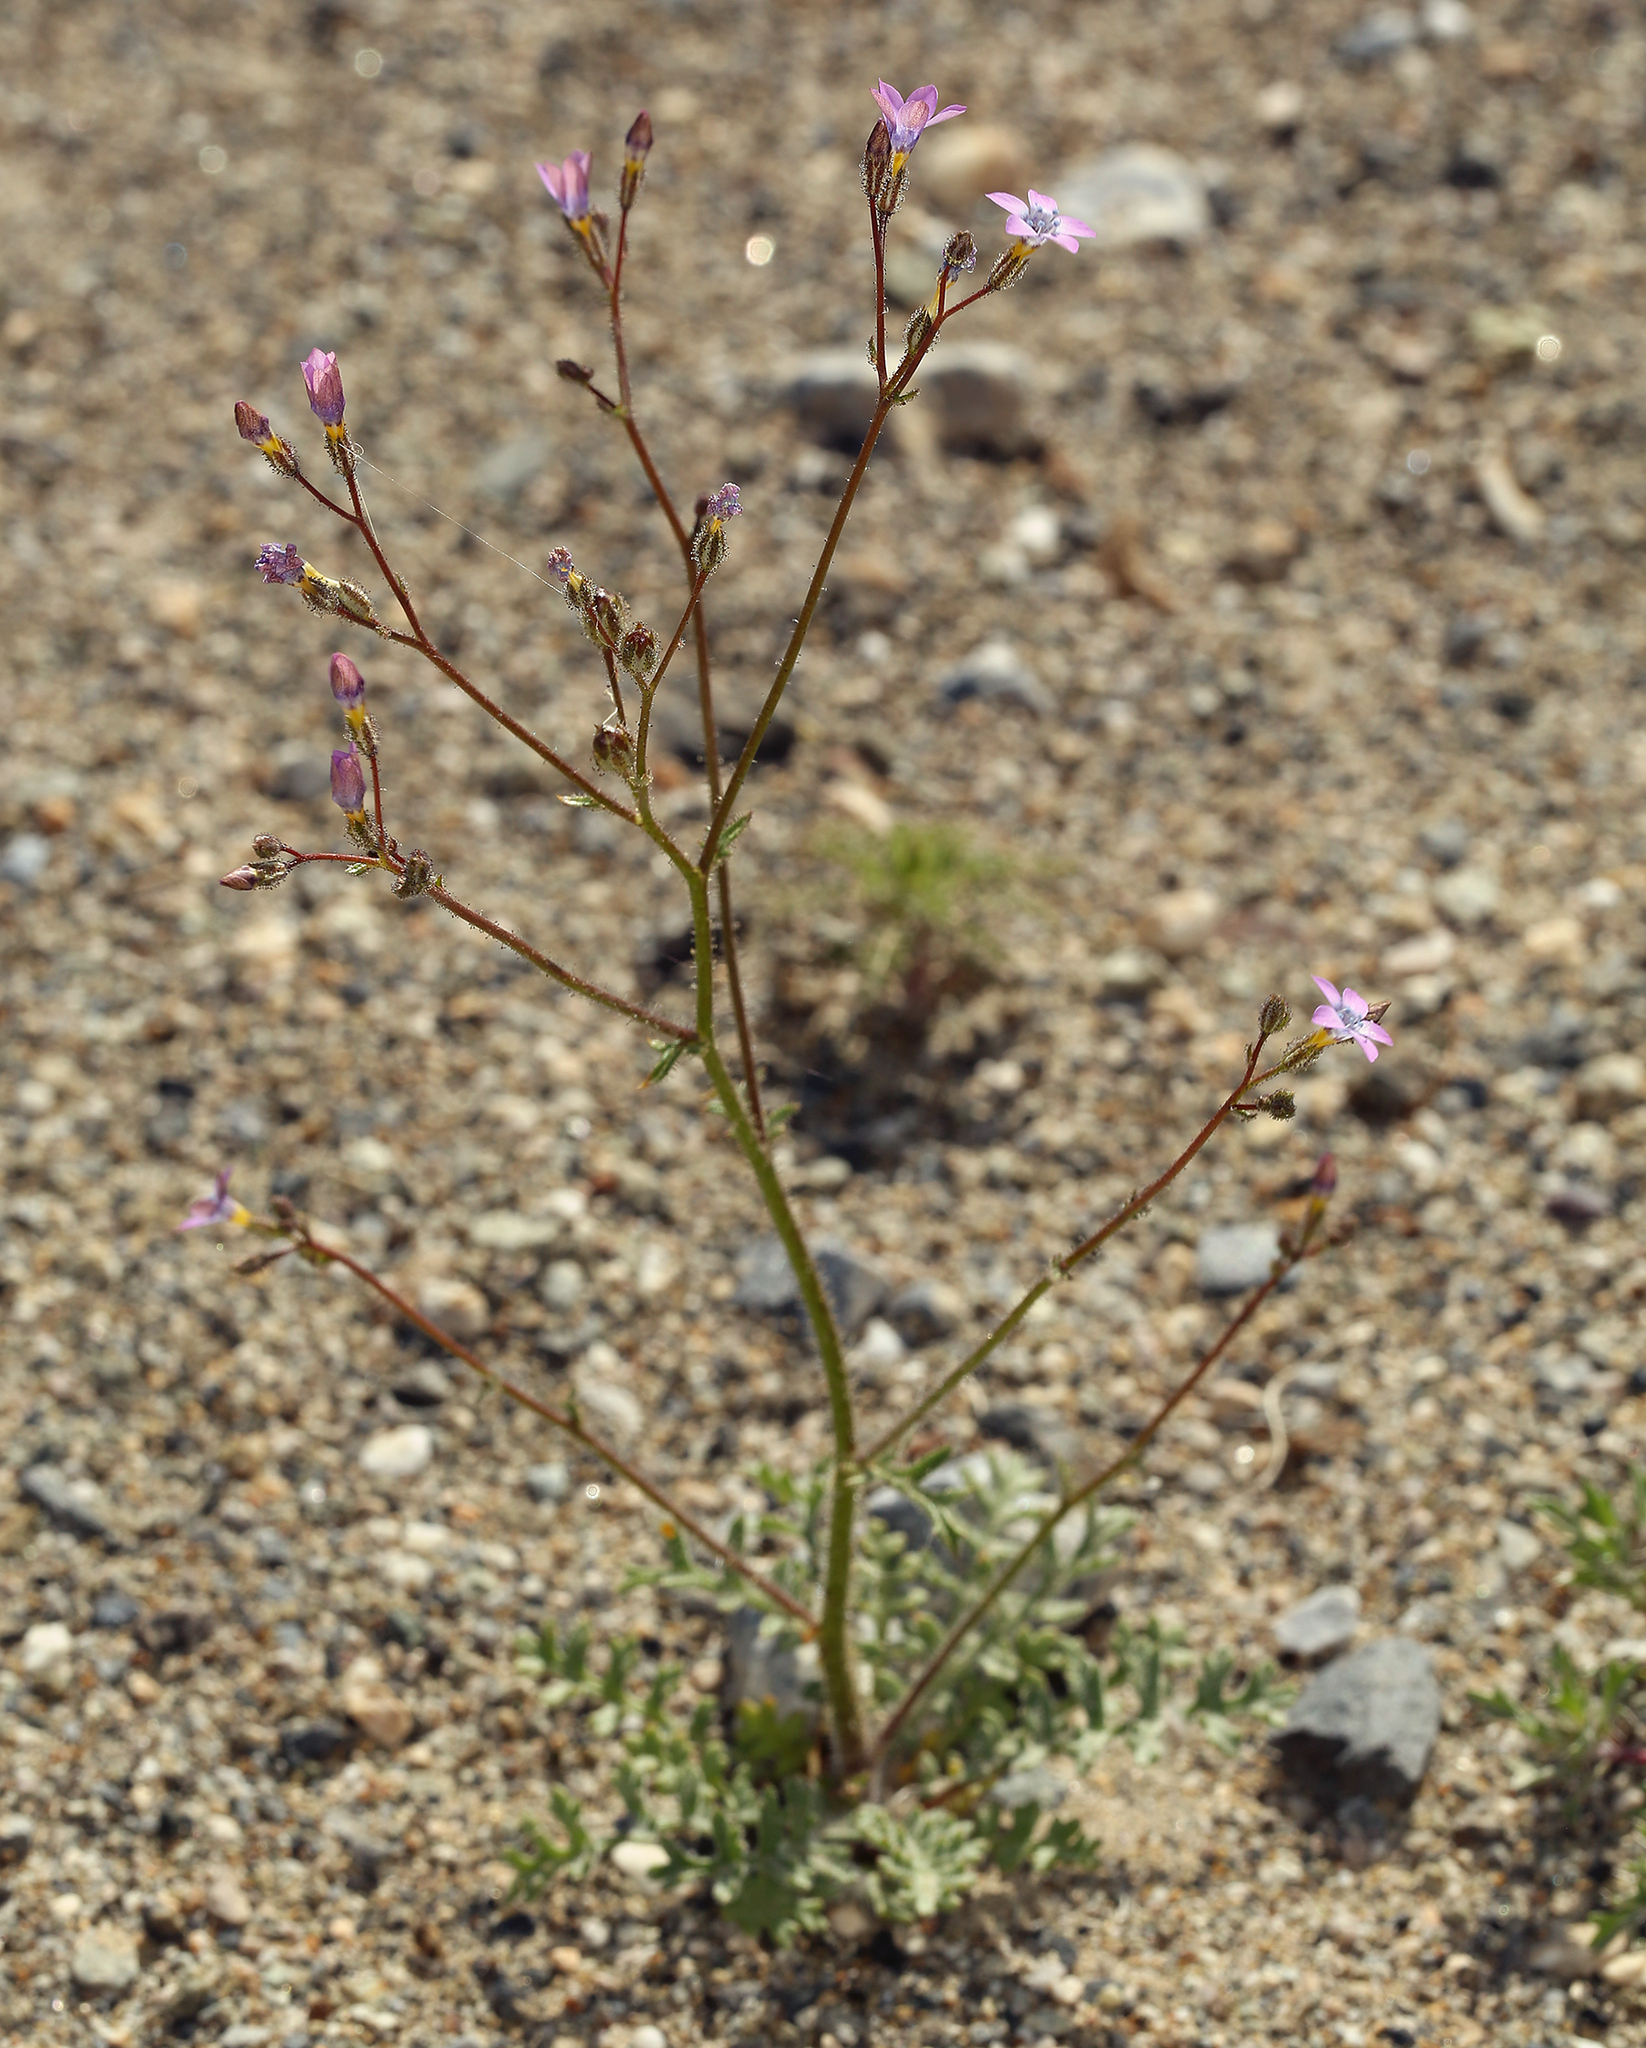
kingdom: Plantae
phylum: Tracheophyta
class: Magnoliopsida
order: Ericales
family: Polemoniaceae
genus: Gilia
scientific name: Gilia stellata
